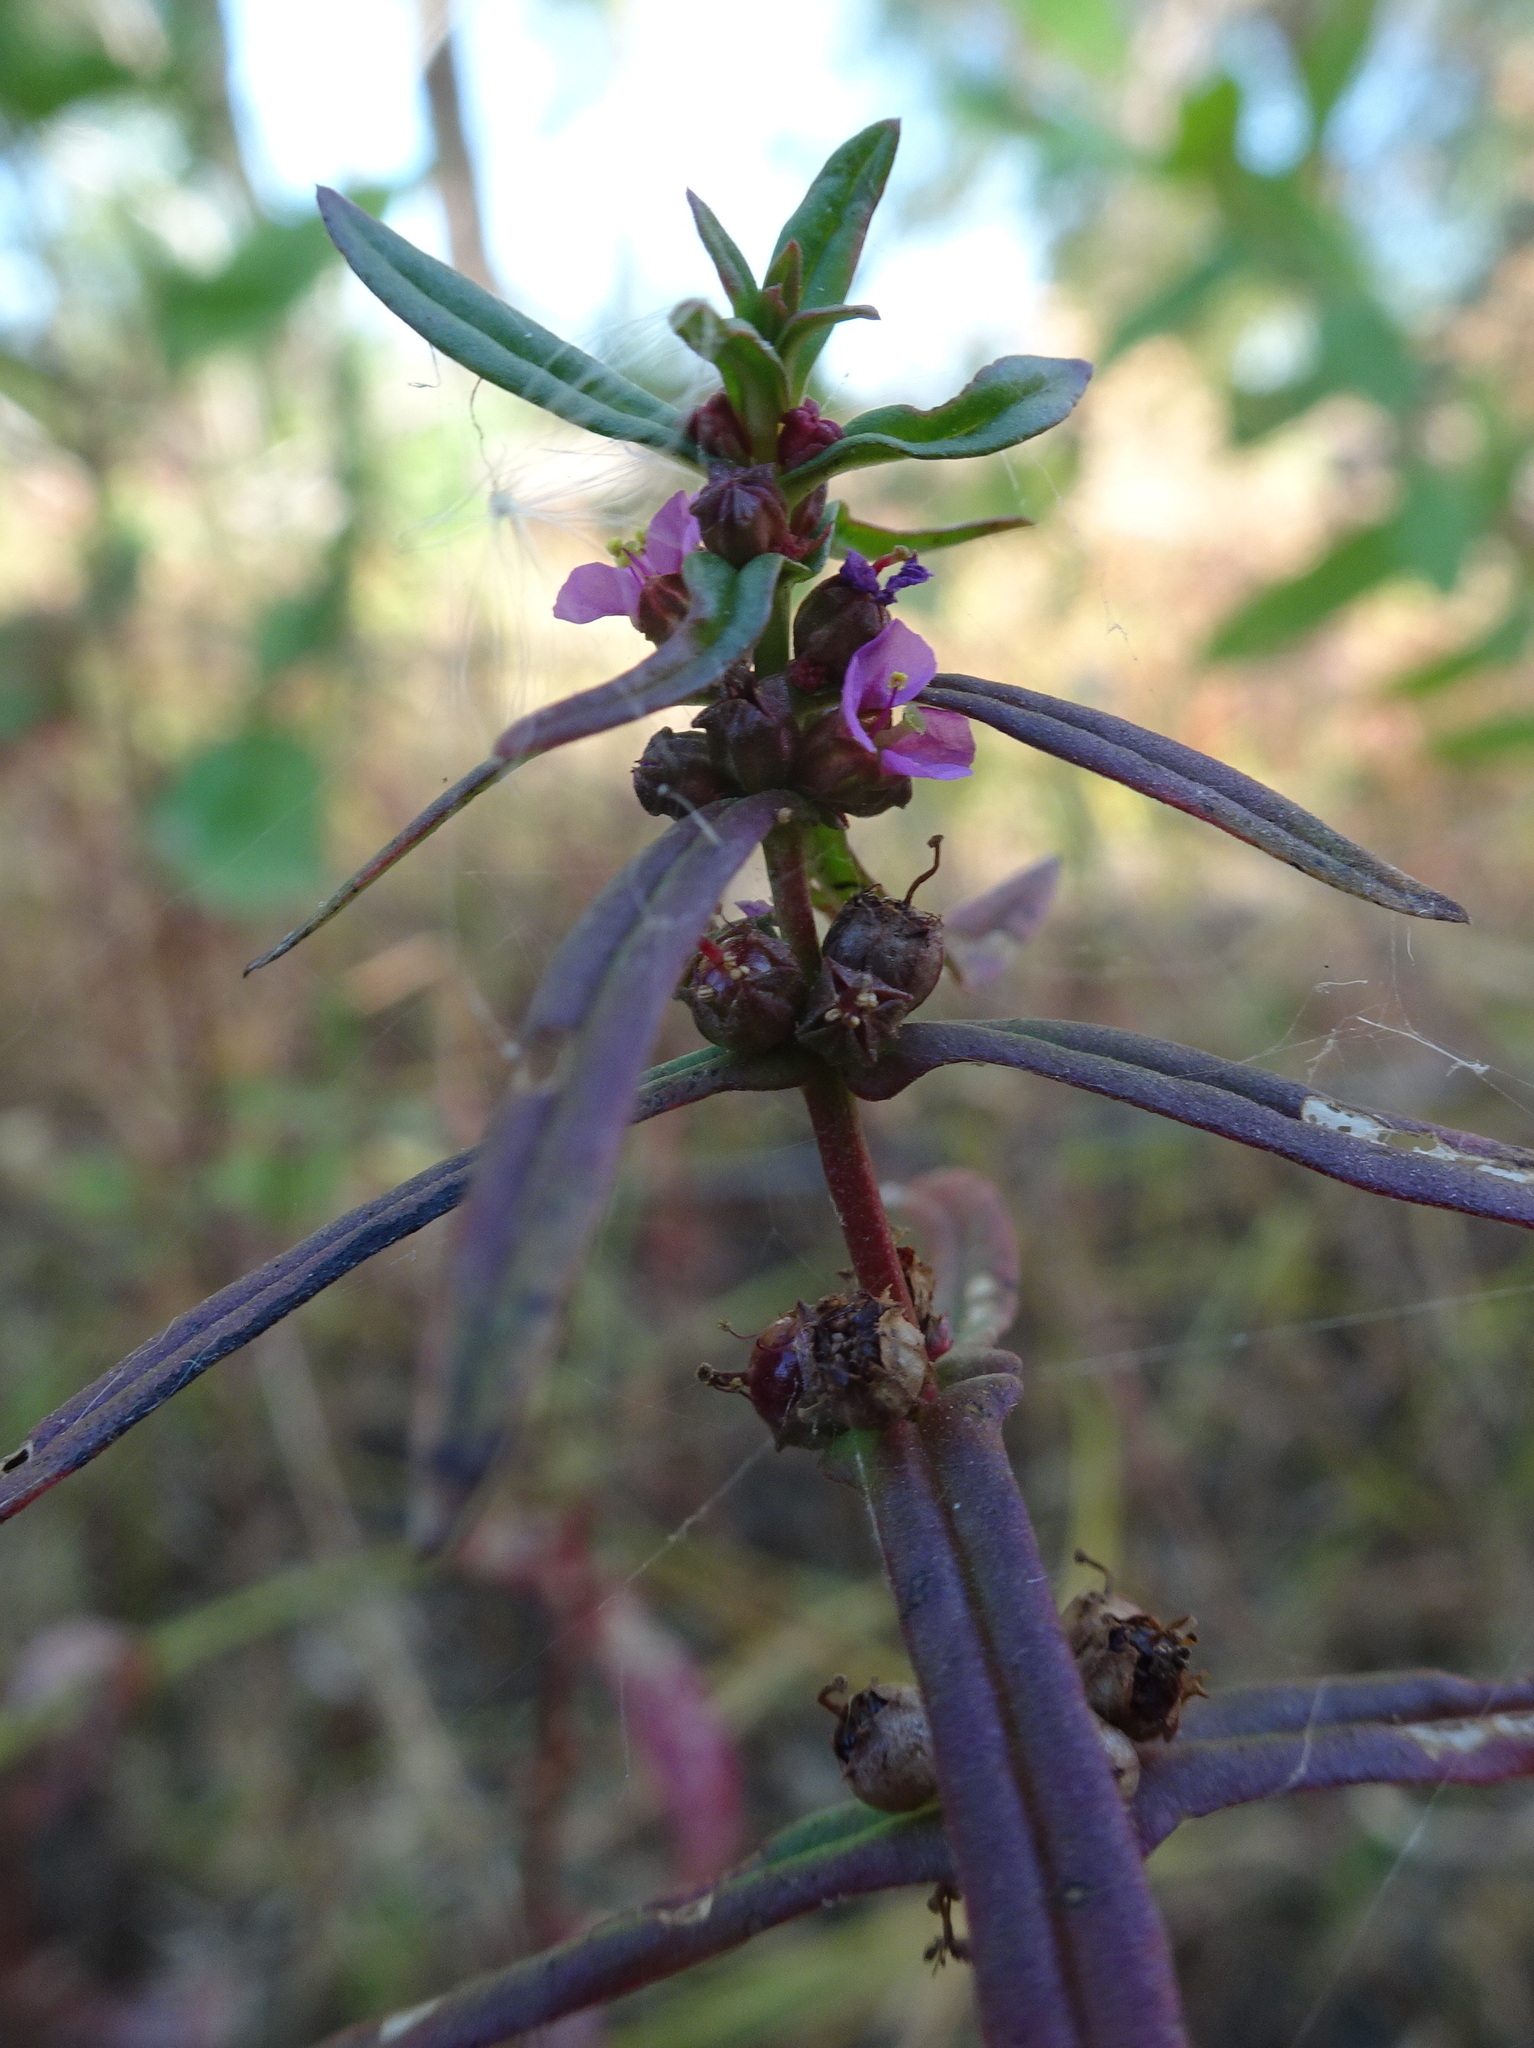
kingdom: Plantae
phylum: Tracheophyta
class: Magnoliopsida
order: Myrtales
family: Lythraceae
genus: Ammannia
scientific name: Ammannia coccinea
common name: Valley redstem
